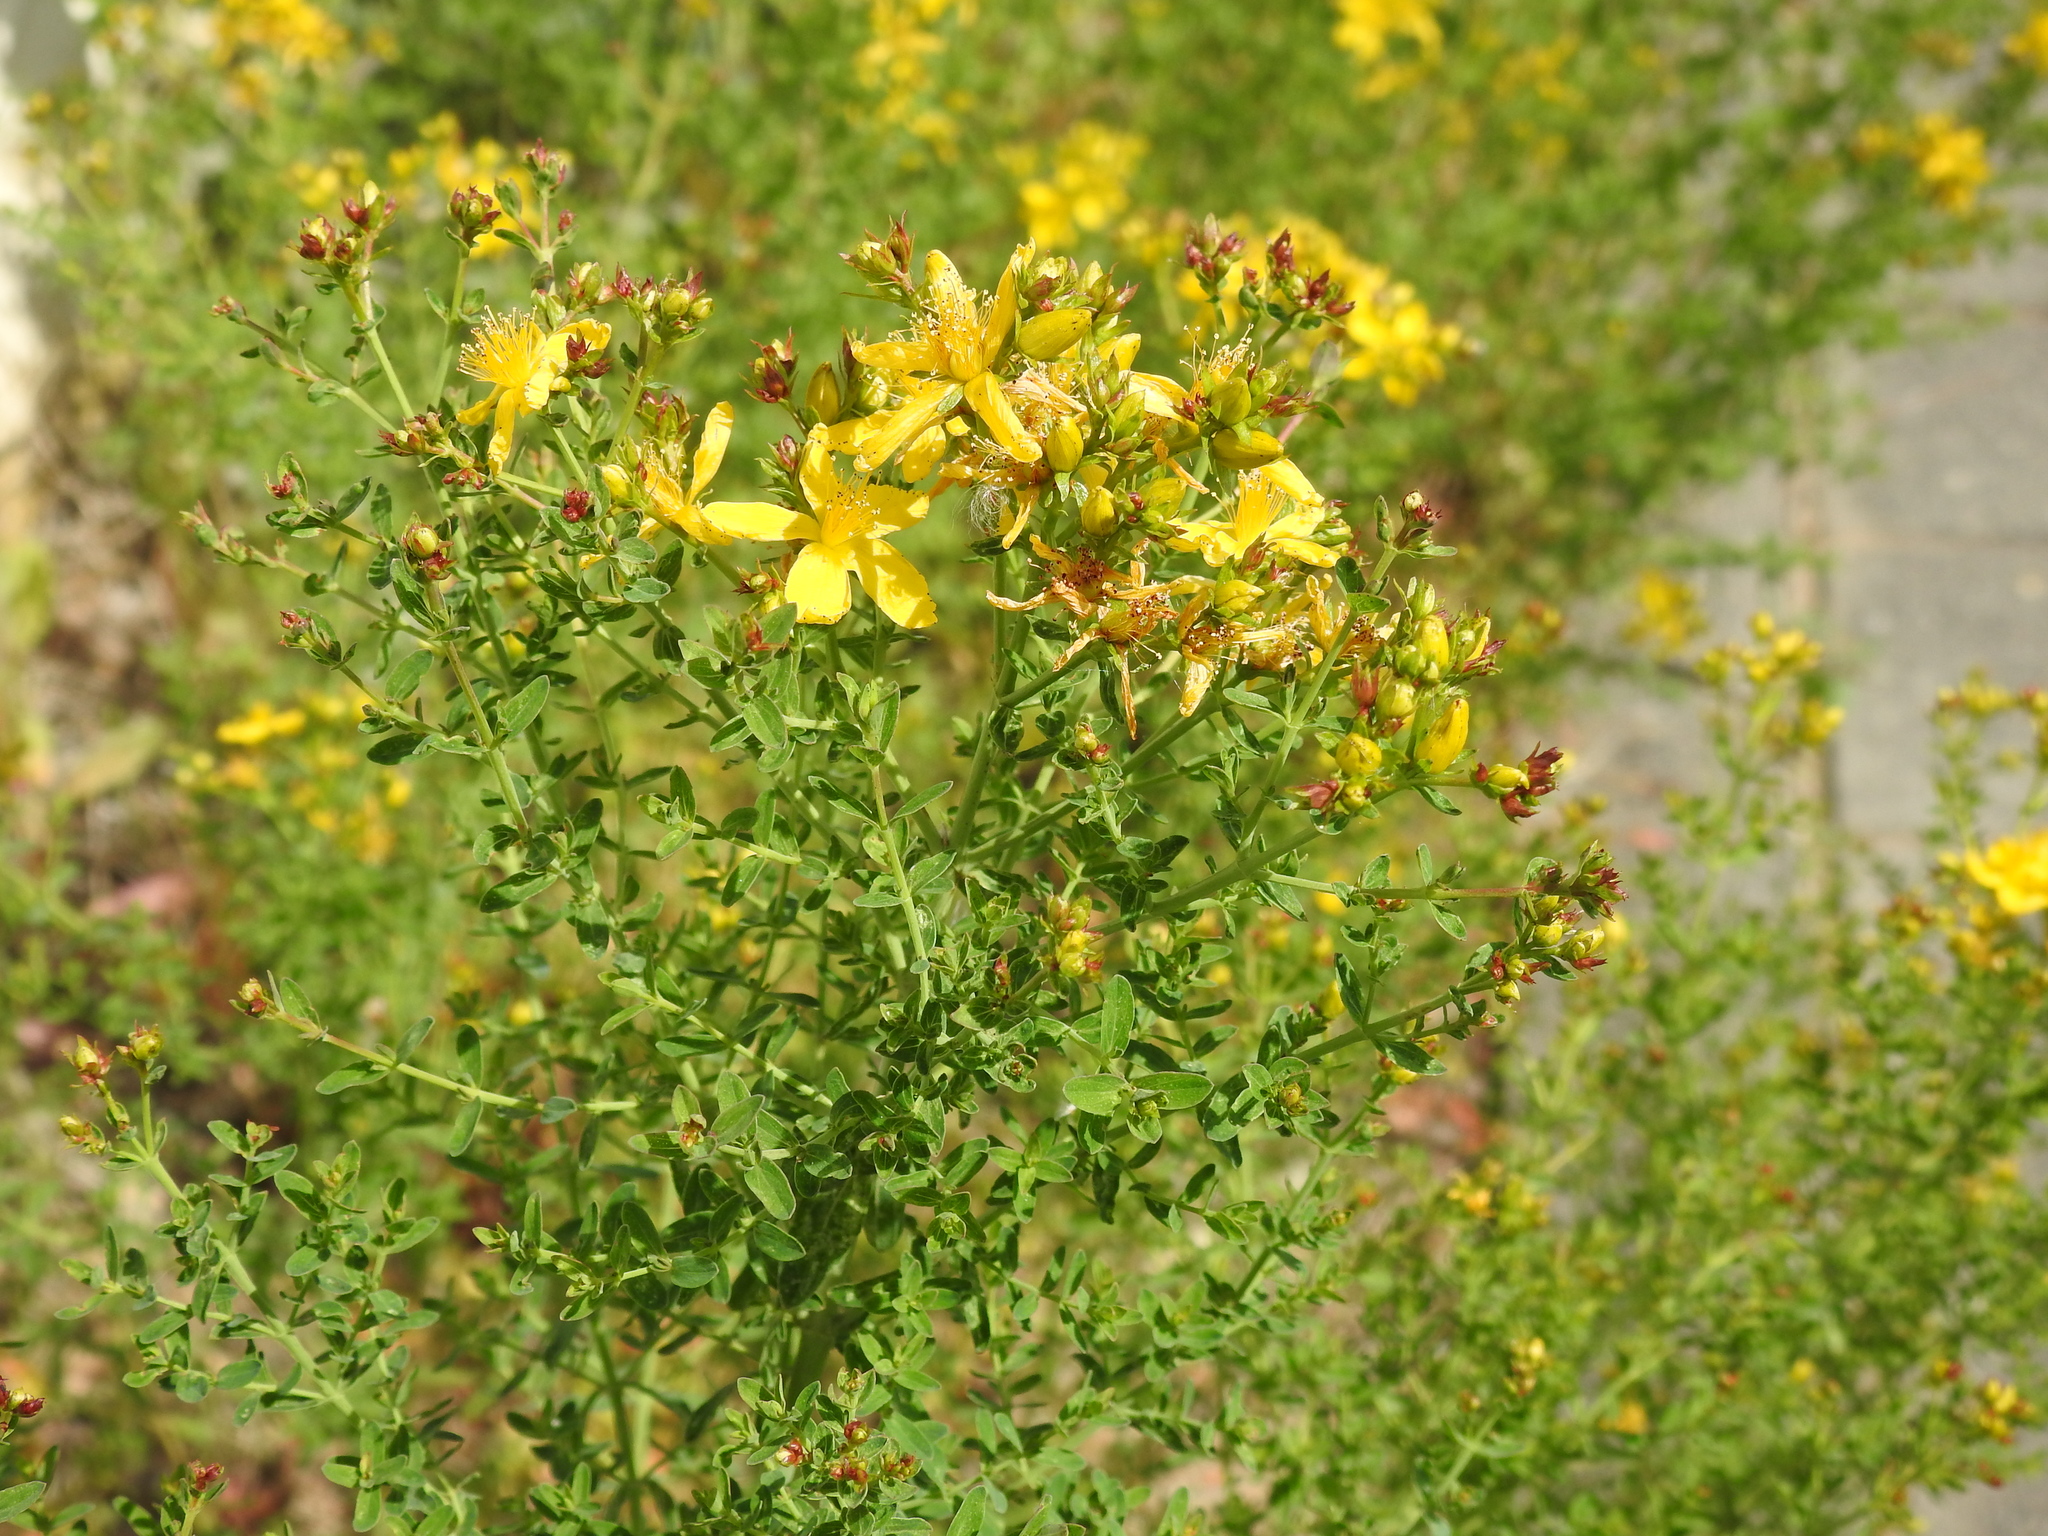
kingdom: Plantae
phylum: Tracheophyta
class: Magnoliopsida
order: Malpighiales
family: Hypericaceae
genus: Hypericum
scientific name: Hypericum perforatum
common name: Common st. johnswort
